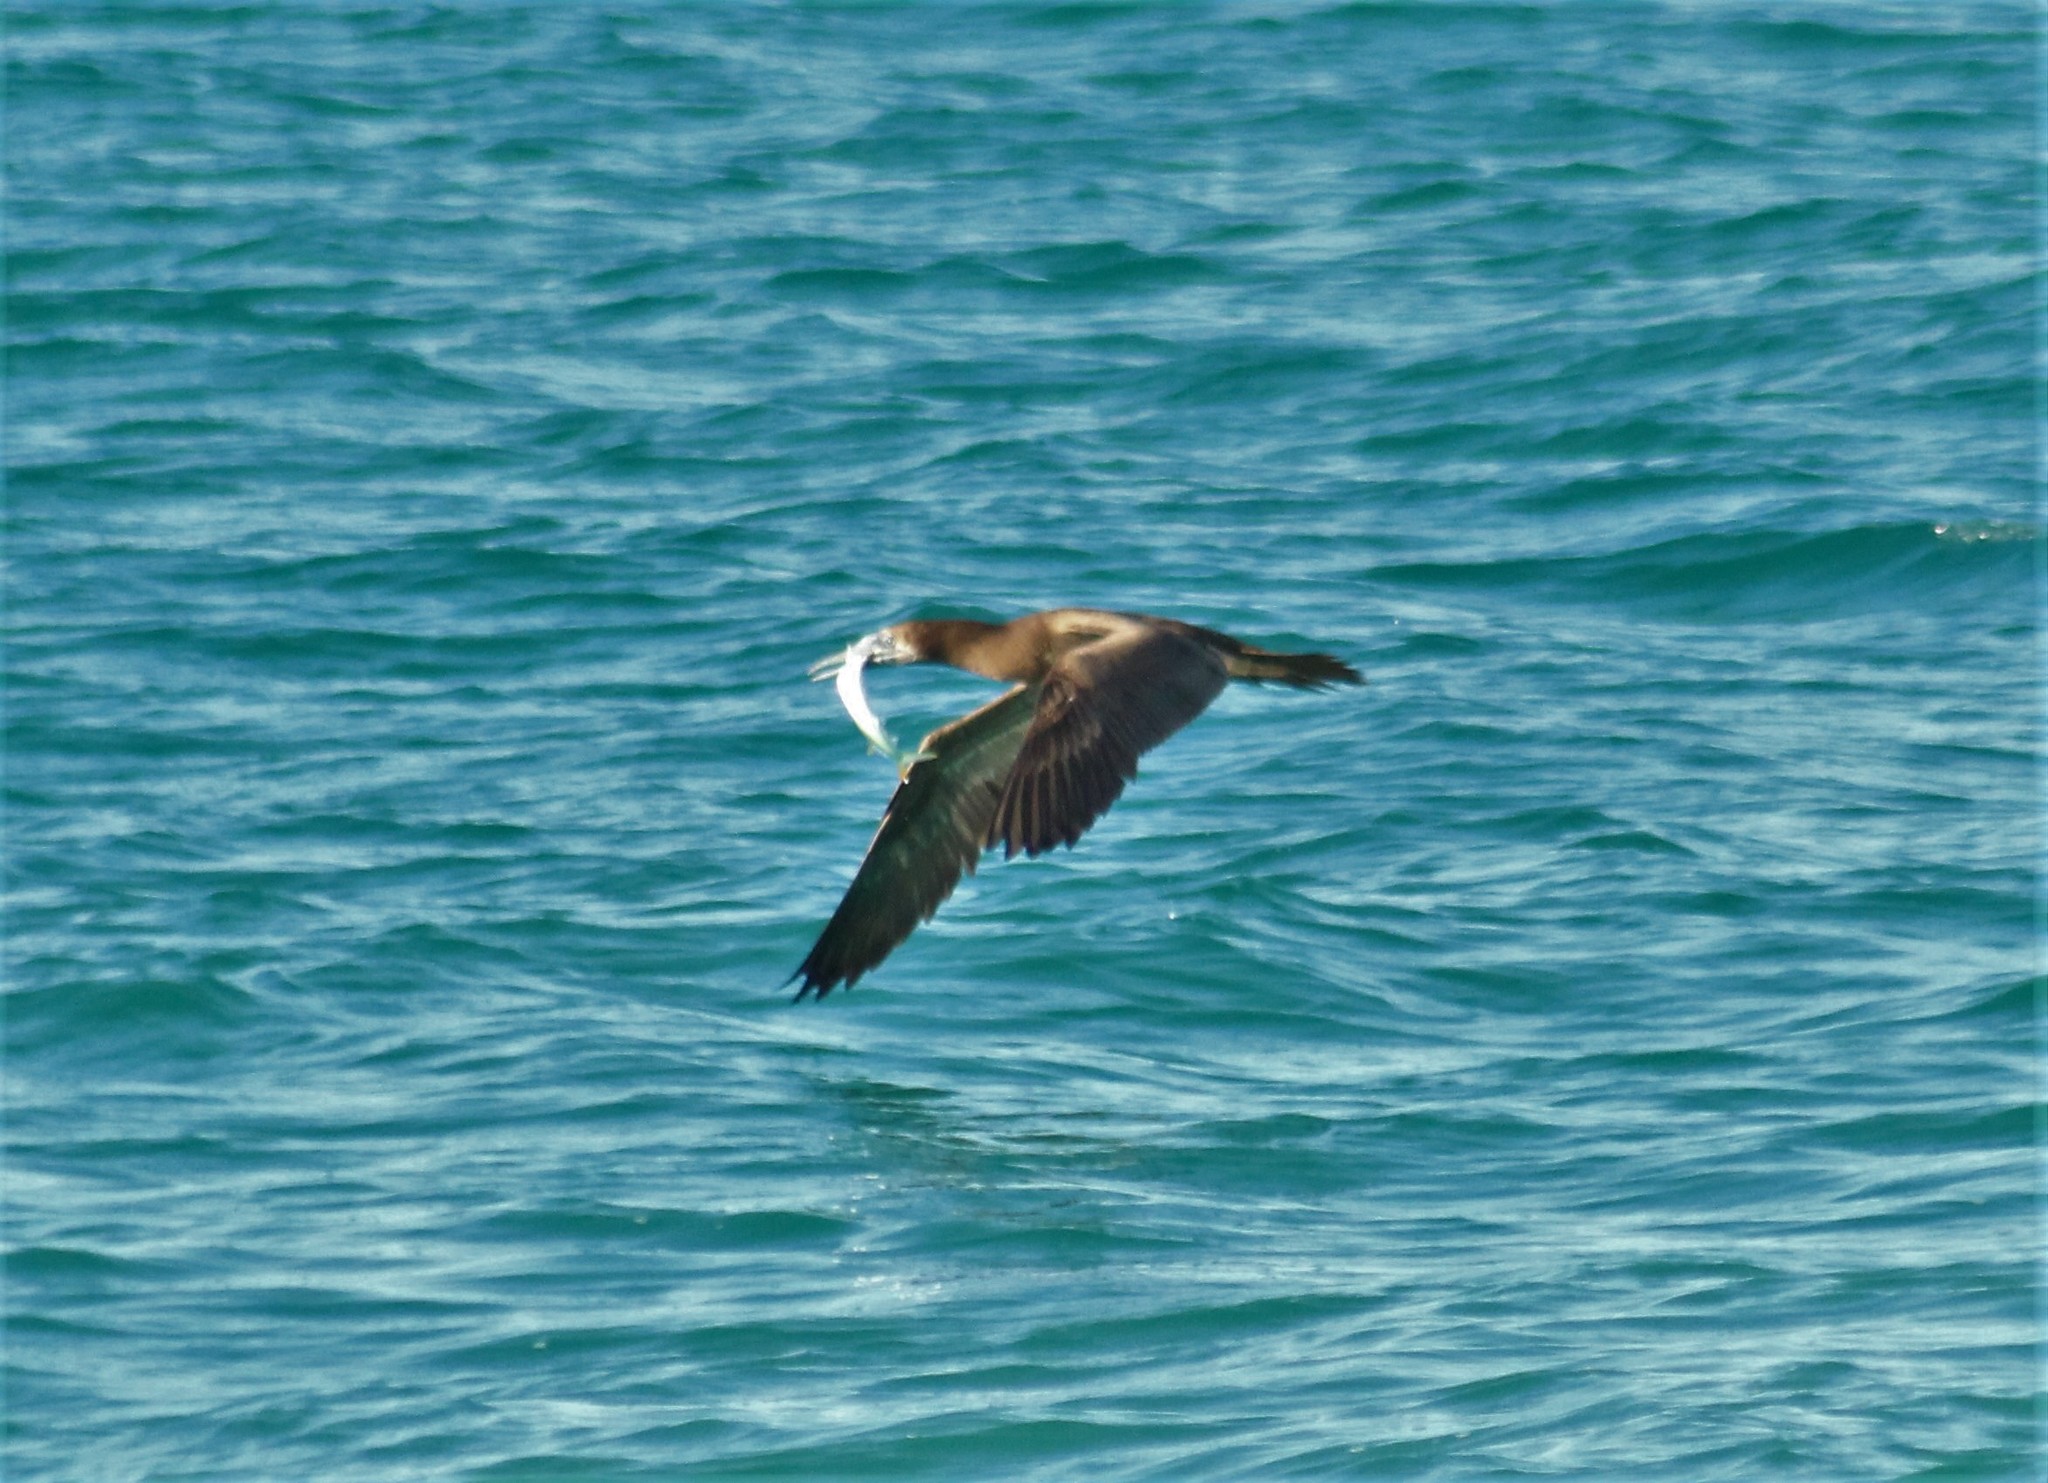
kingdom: Animalia
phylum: Chordata
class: Aves
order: Suliformes
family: Sulidae
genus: Sula
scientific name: Sula leucogaster
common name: Brown booby
